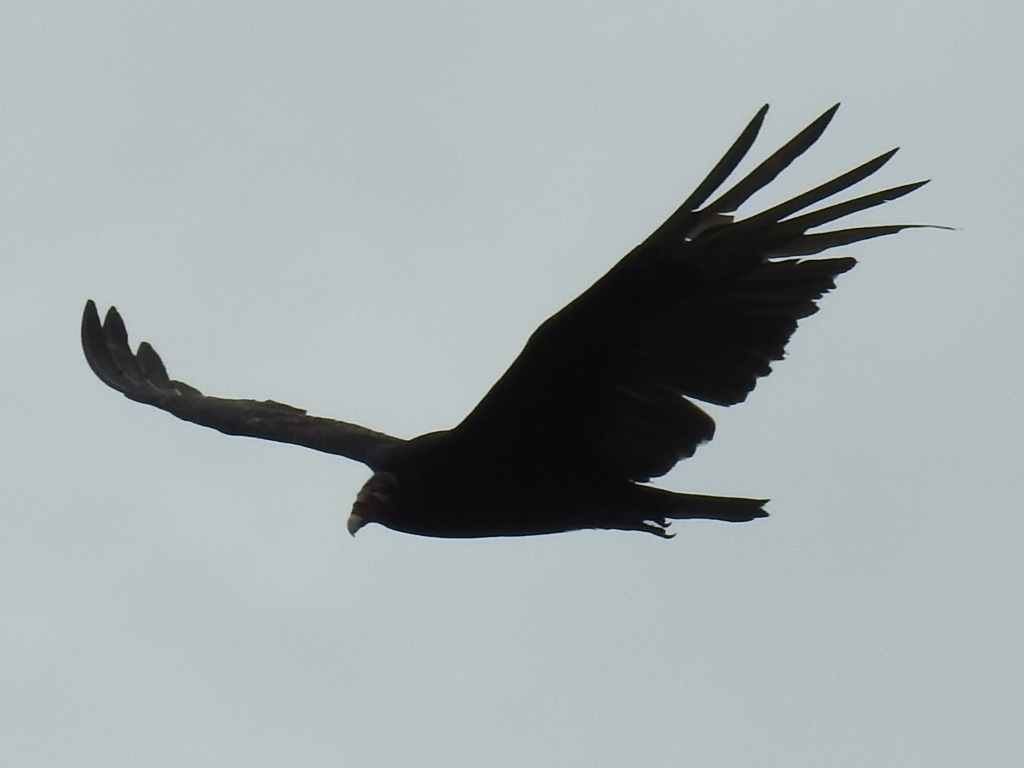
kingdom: Animalia
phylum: Chordata
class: Aves
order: Accipitriformes
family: Cathartidae
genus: Cathartes
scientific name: Cathartes aura
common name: Turkey vulture
